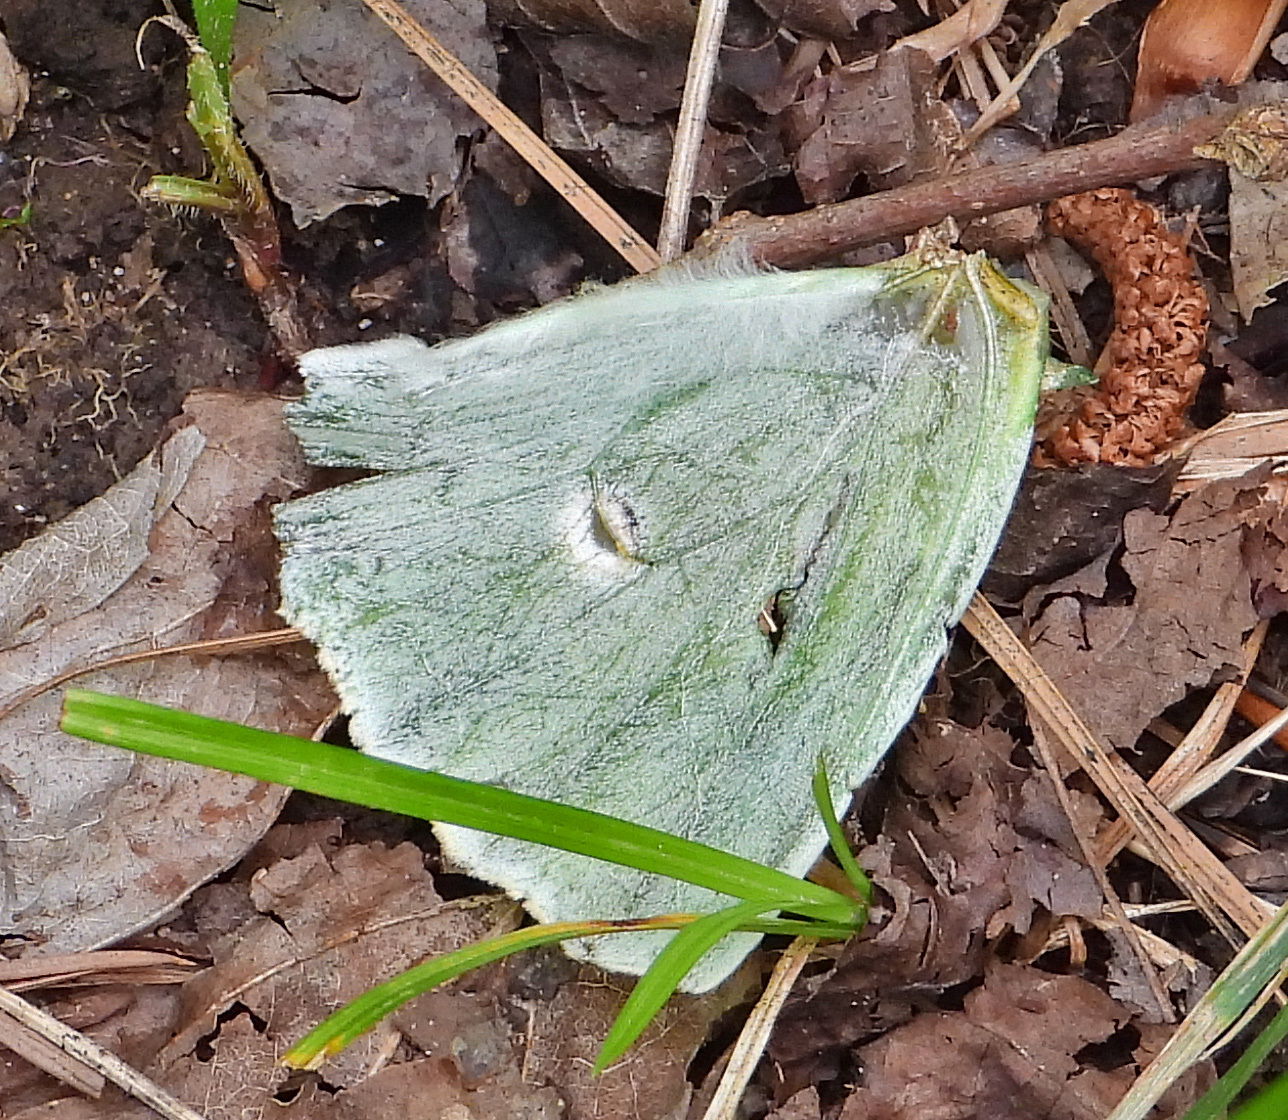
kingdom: Animalia
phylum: Arthropoda
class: Insecta
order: Lepidoptera
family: Saturniidae
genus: Actias
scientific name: Actias luna
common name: Luna moth
